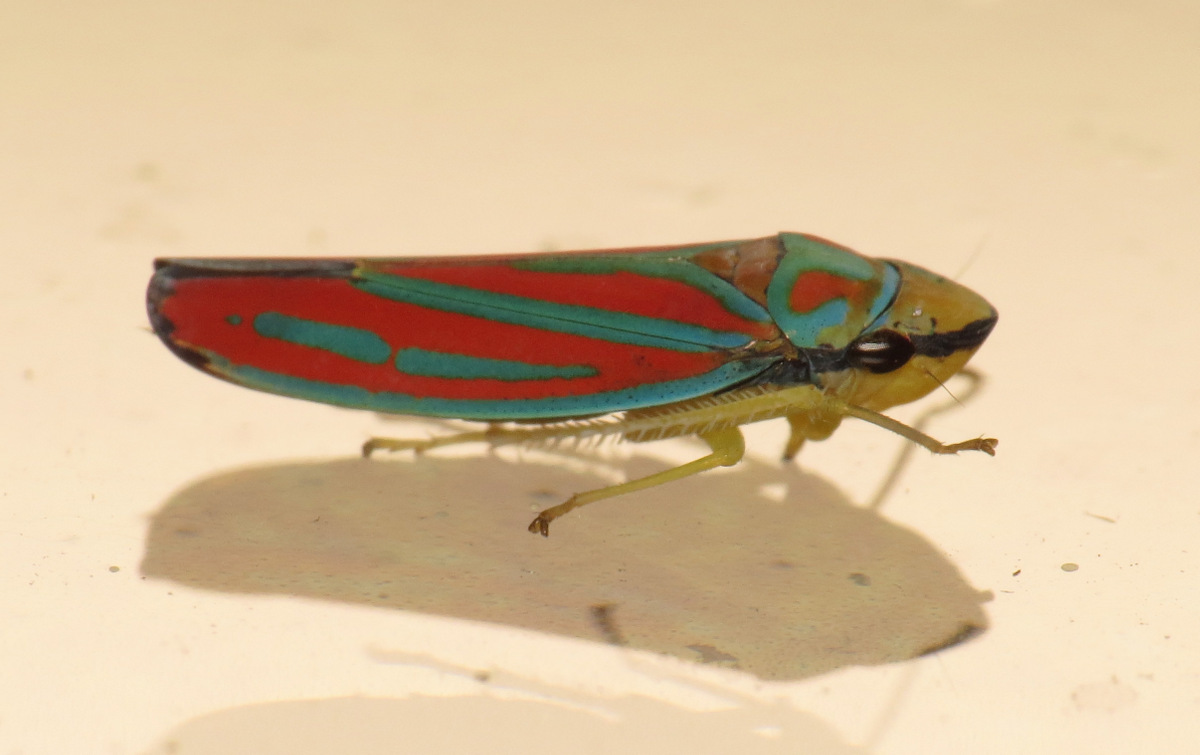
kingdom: Animalia
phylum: Arthropoda
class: Insecta
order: Hemiptera
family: Cicadellidae
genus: Graphocephala
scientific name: Graphocephala coccinea
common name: Candy-striped leafhopper
